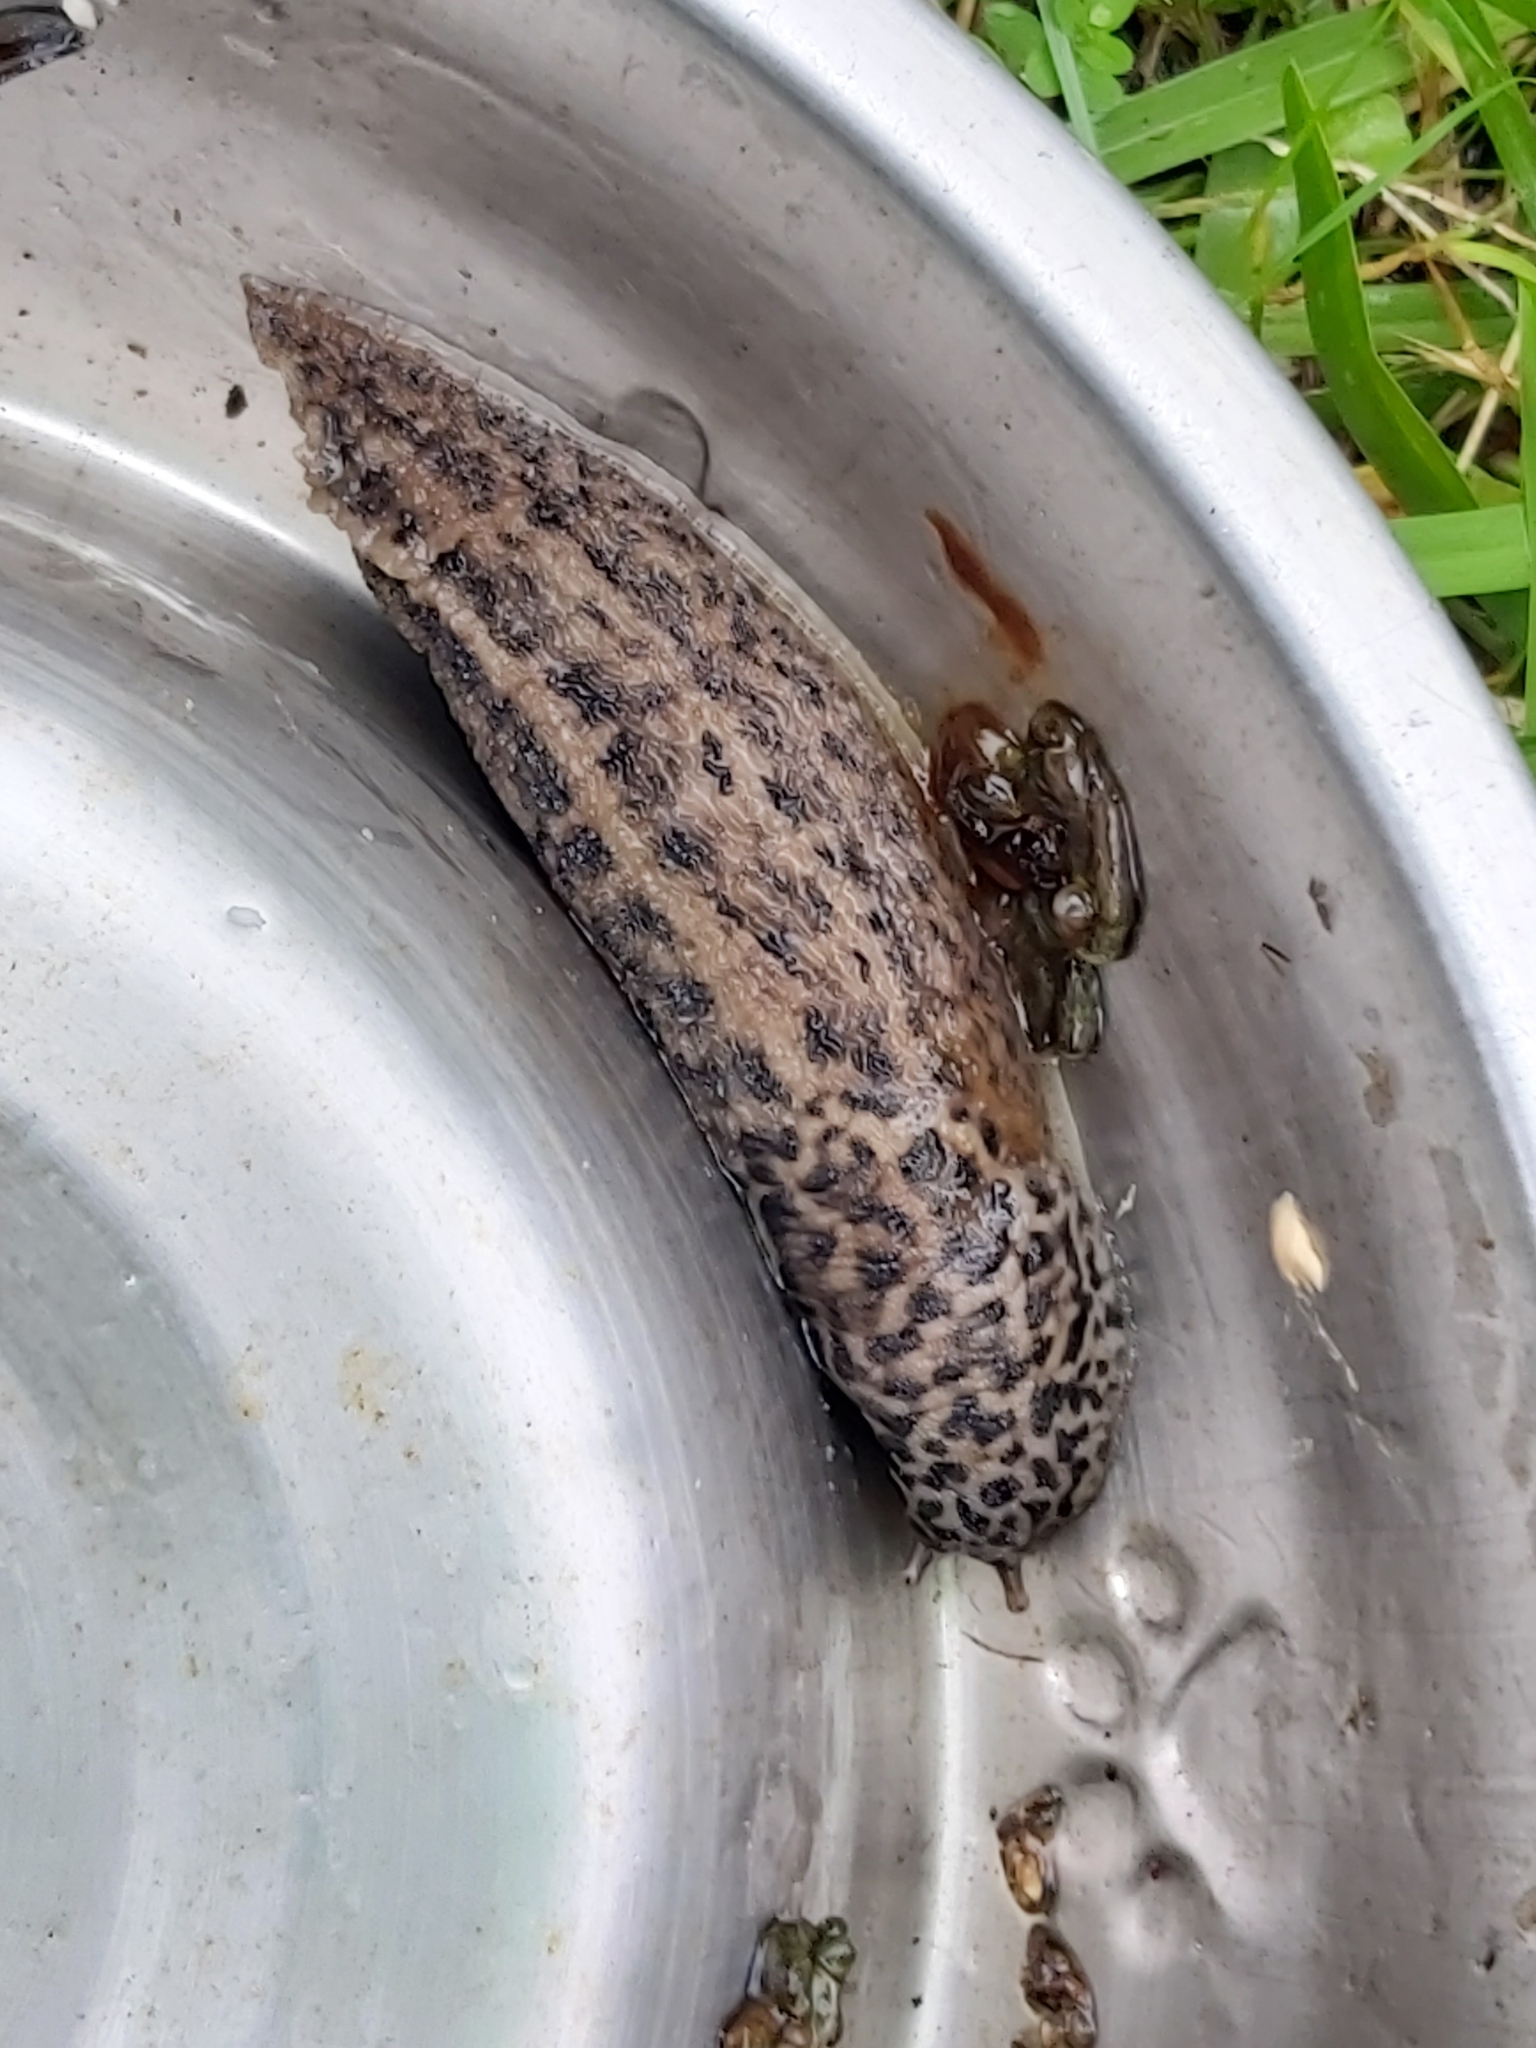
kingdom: Animalia
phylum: Mollusca
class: Gastropoda
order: Stylommatophora
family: Limacidae
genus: Limax
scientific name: Limax maximus
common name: Great grey slug
